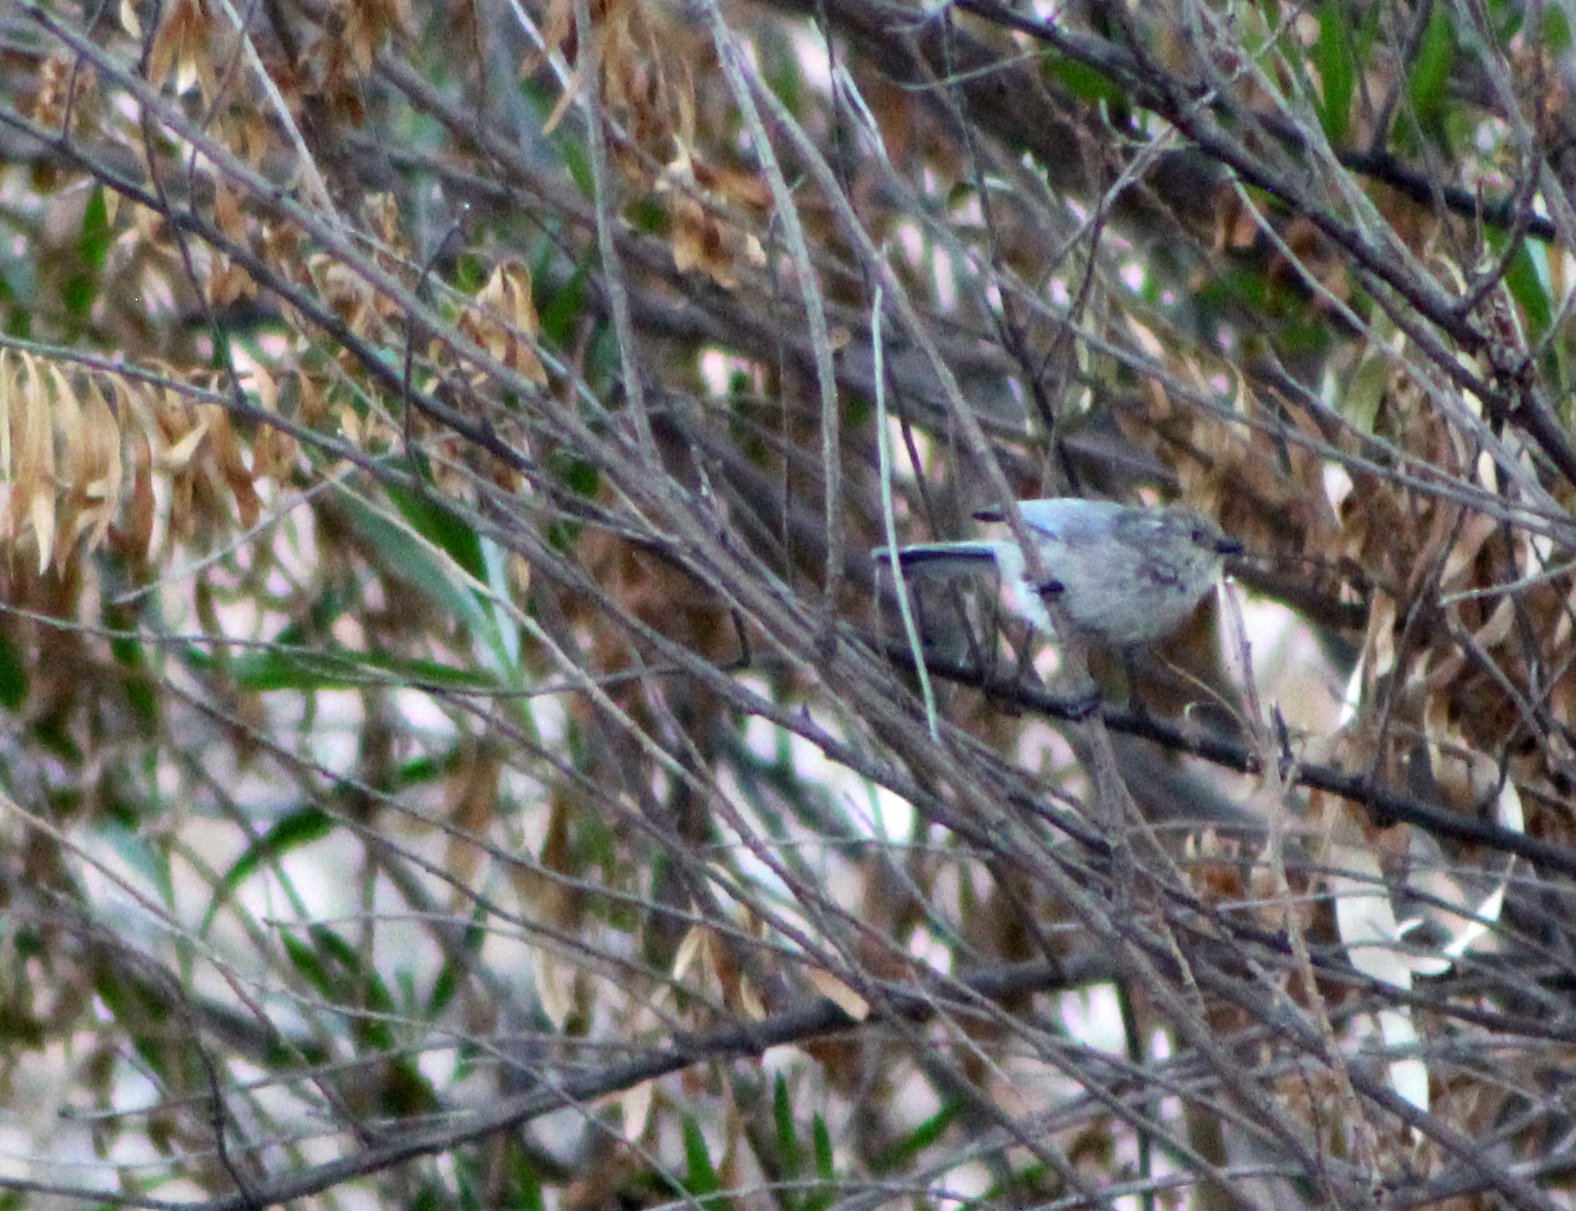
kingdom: Animalia
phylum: Chordata
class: Aves
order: Passeriformes
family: Aegithalidae
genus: Psaltriparus
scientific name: Psaltriparus minimus
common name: American bushtit
